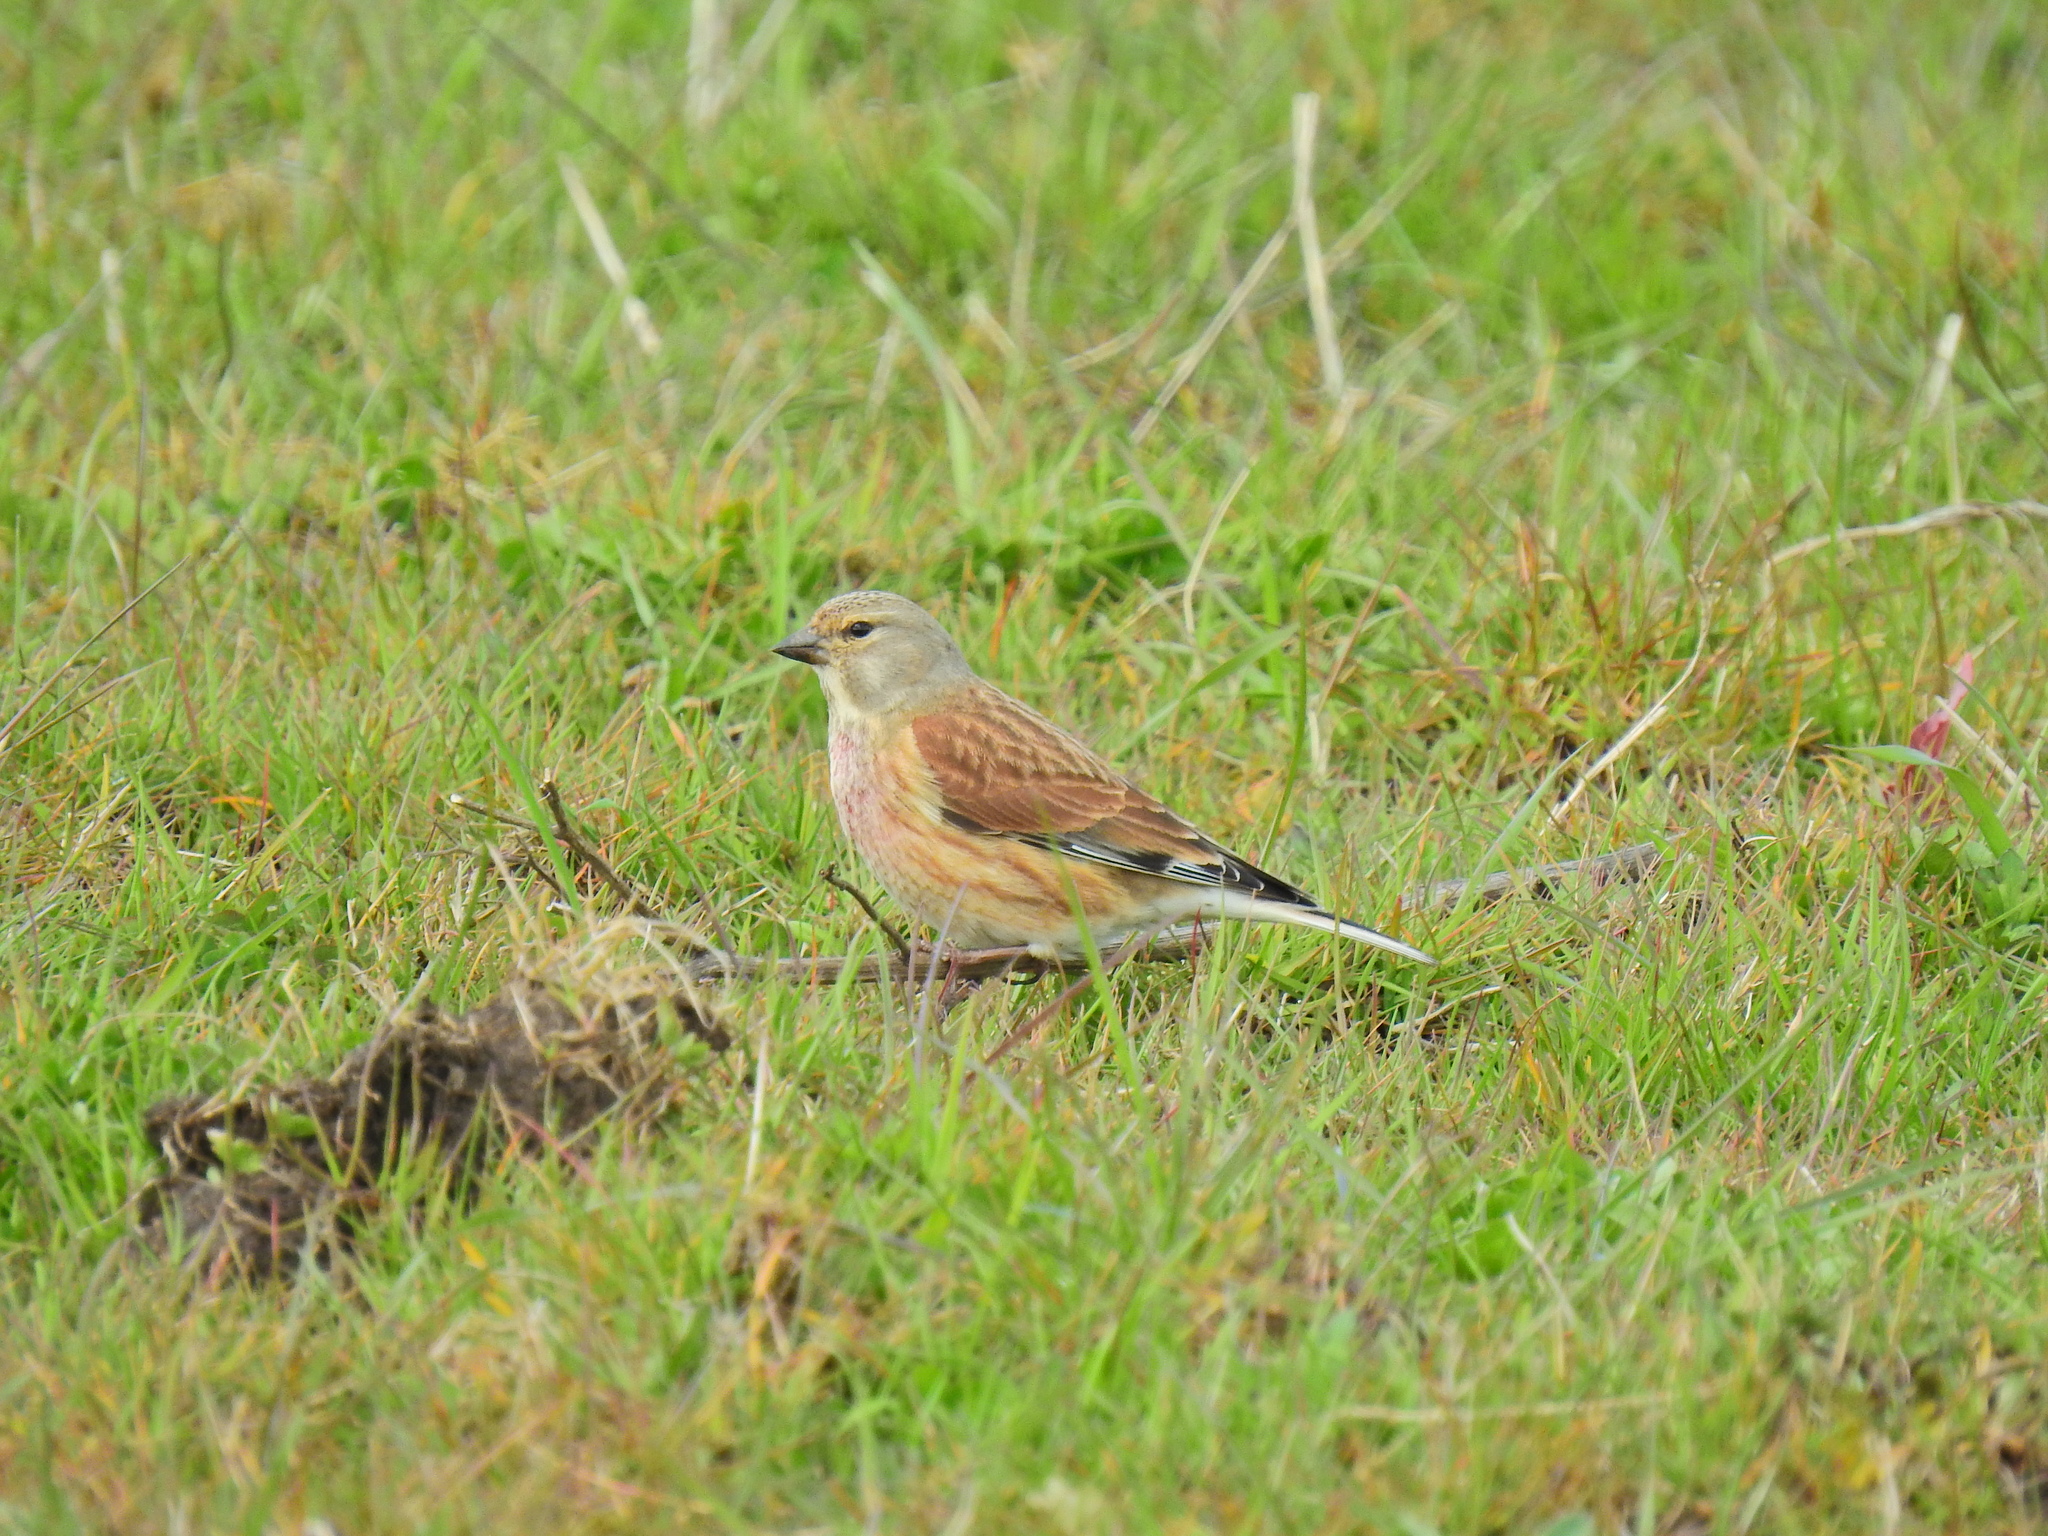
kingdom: Animalia
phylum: Chordata
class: Aves
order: Passeriformes
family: Fringillidae
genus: Linaria
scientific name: Linaria cannabina
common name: Common linnet
